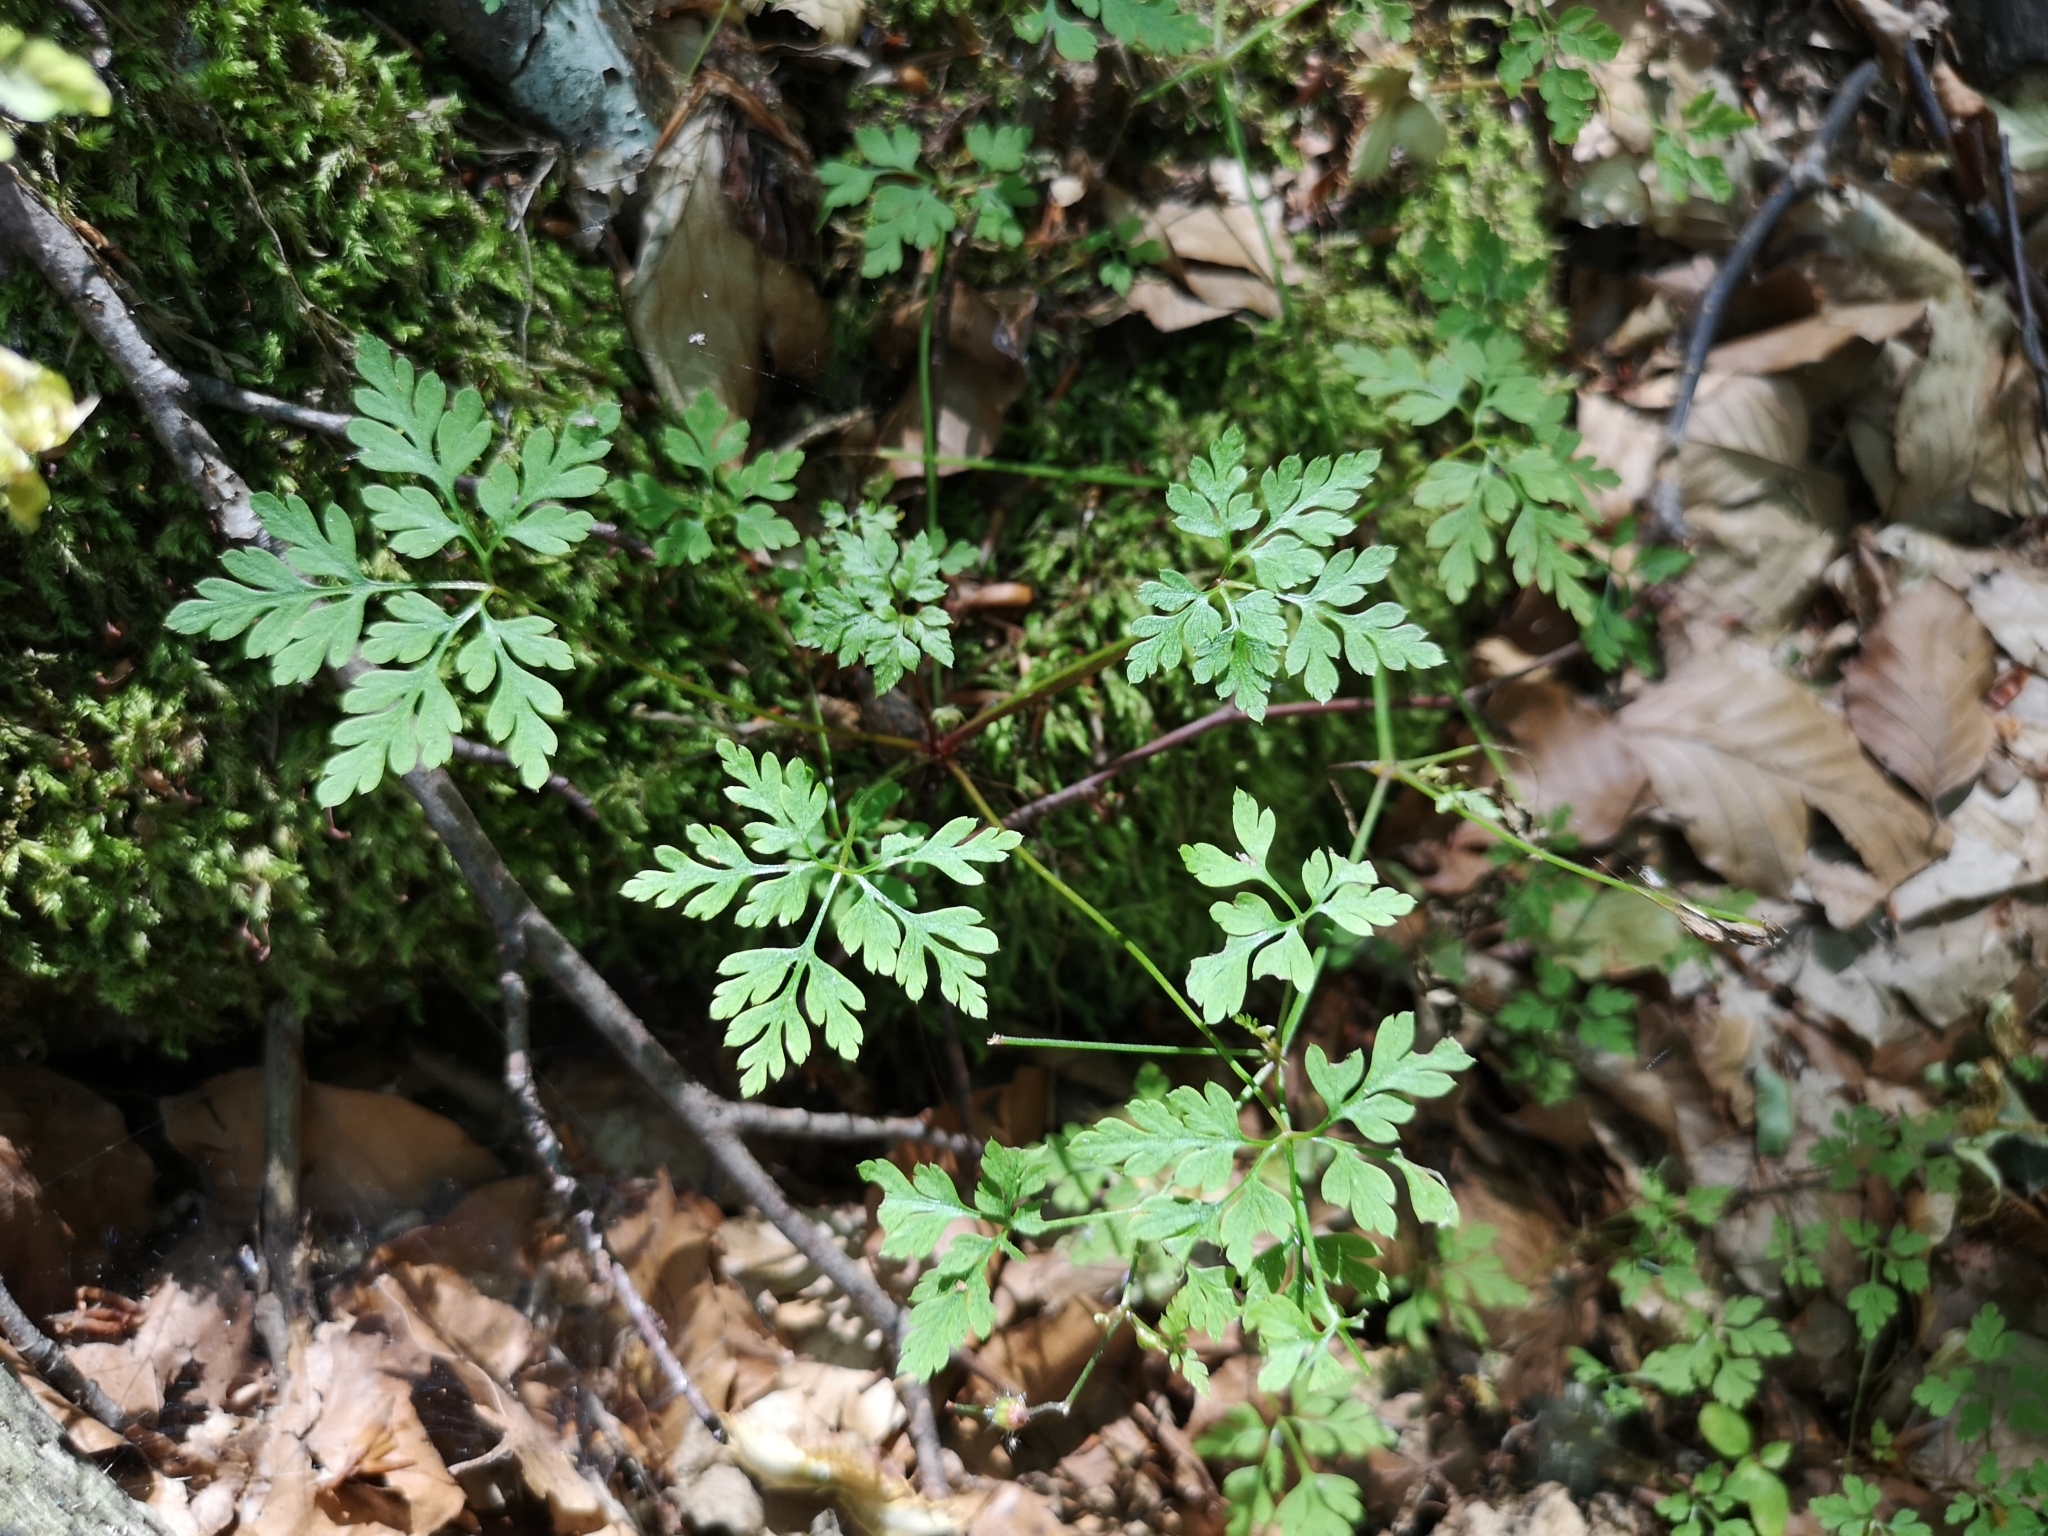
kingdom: Plantae
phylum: Tracheophyta
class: Magnoliopsida
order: Geraniales
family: Geraniaceae
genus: Geranium
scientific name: Geranium robertianum
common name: Herb-robert
